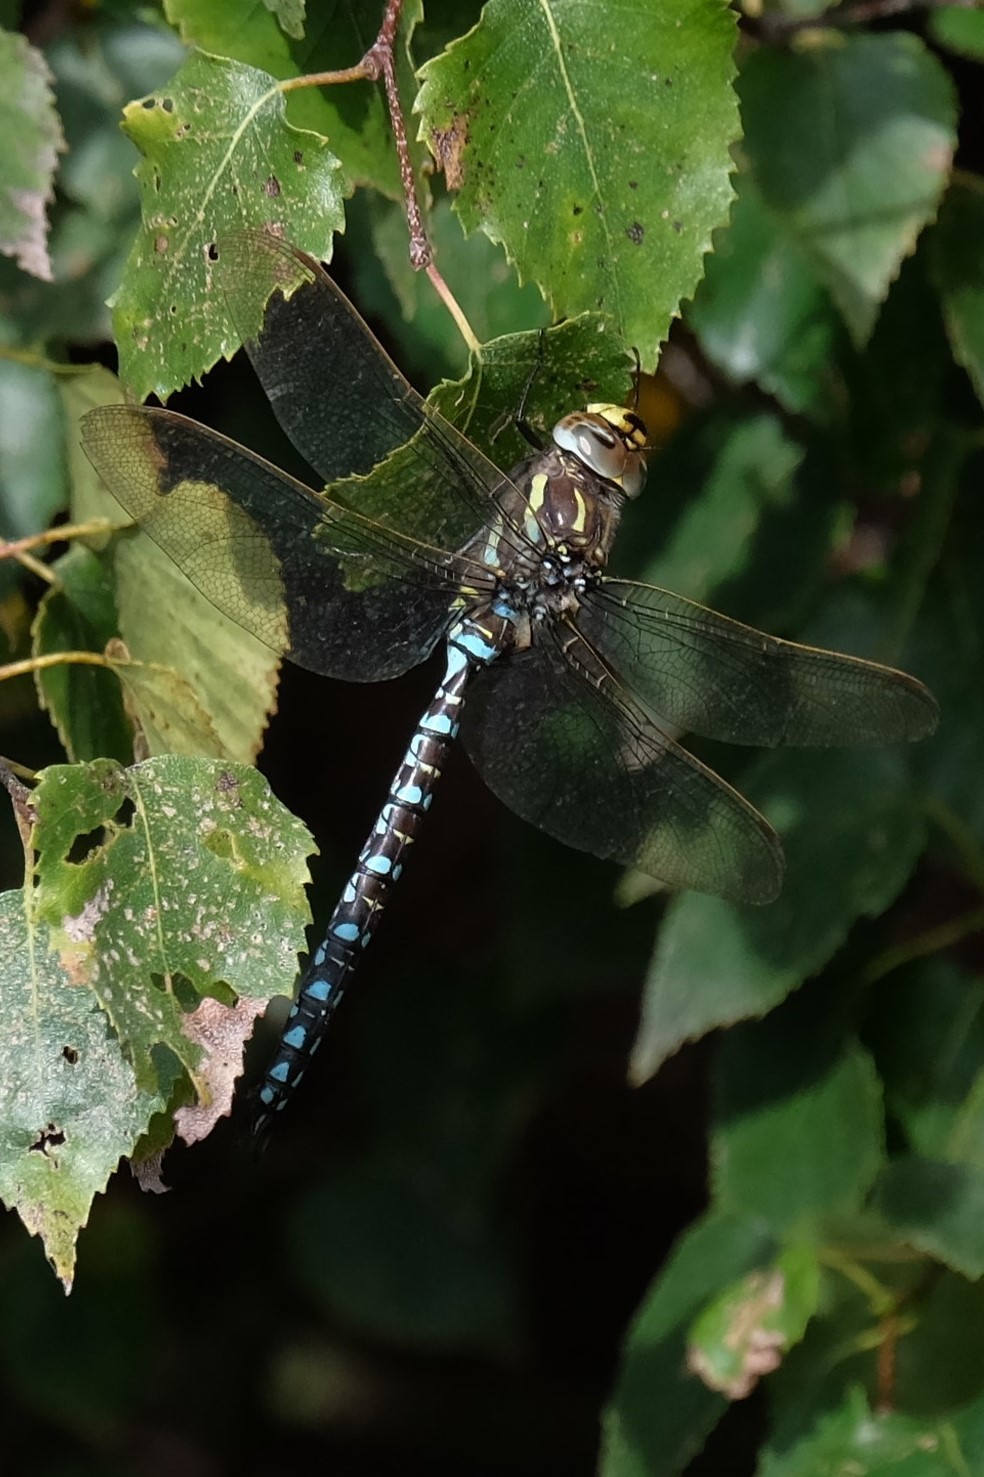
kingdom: Animalia
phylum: Arthropoda
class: Insecta
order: Odonata
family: Aeshnidae
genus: Aeshna
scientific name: Aeshna juncea
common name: Moorland hawker
